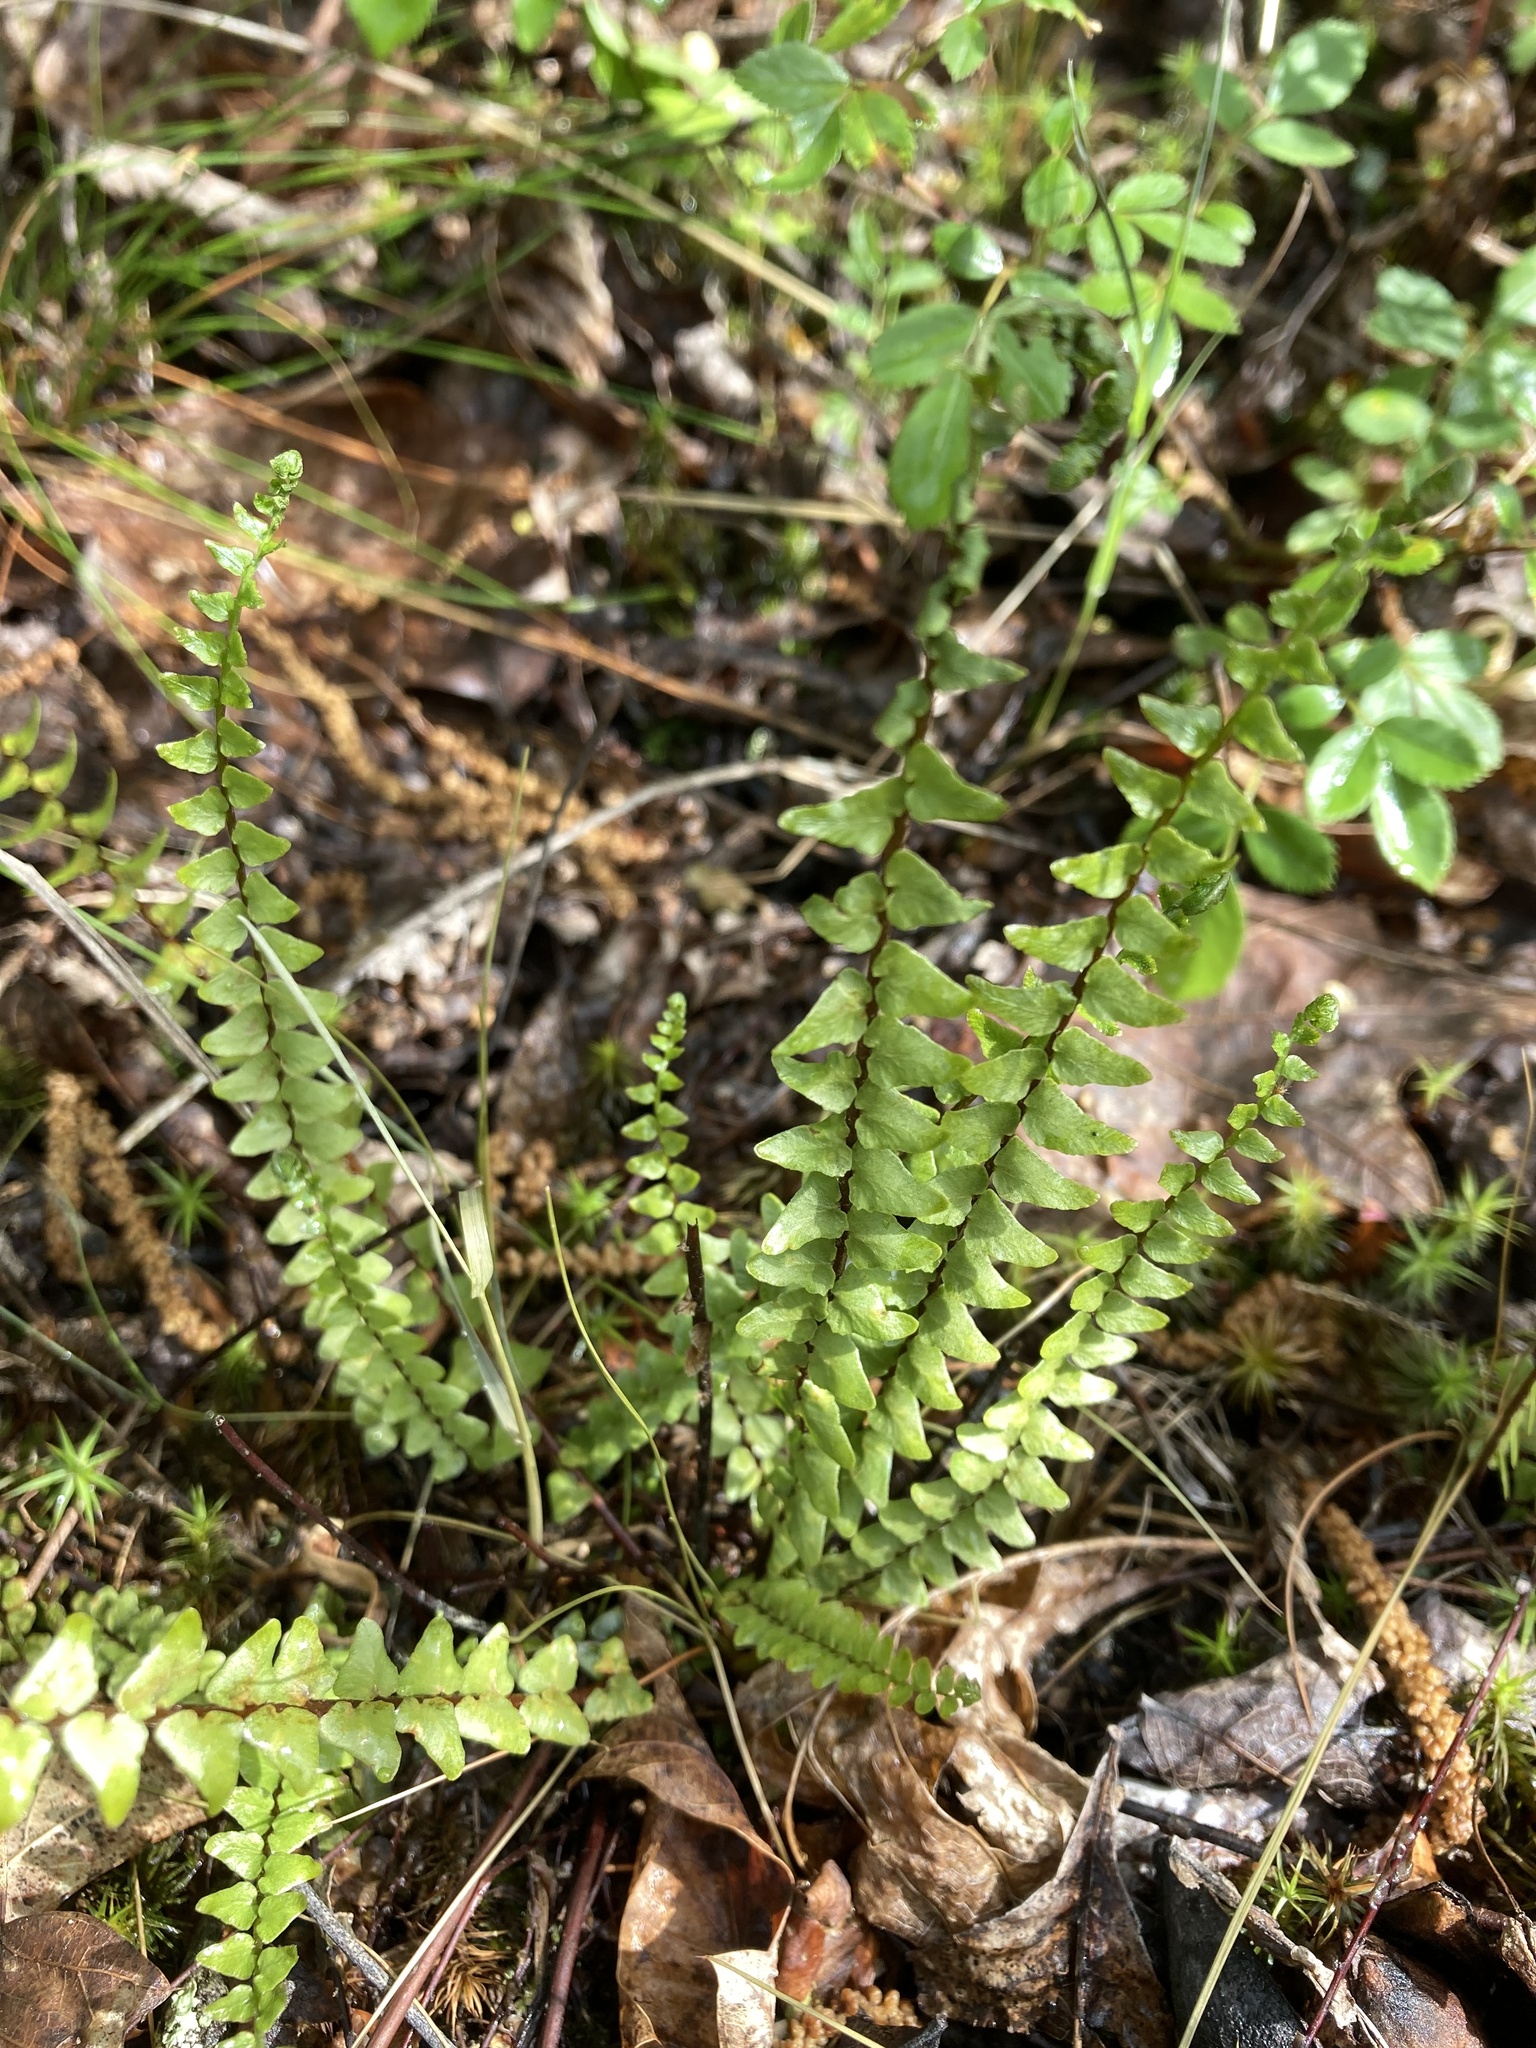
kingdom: Plantae
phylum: Tracheophyta
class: Polypodiopsida
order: Polypodiales
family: Aspleniaceae
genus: Asplenium
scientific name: Asplenium platyneuron
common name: Ebony spleenwort
